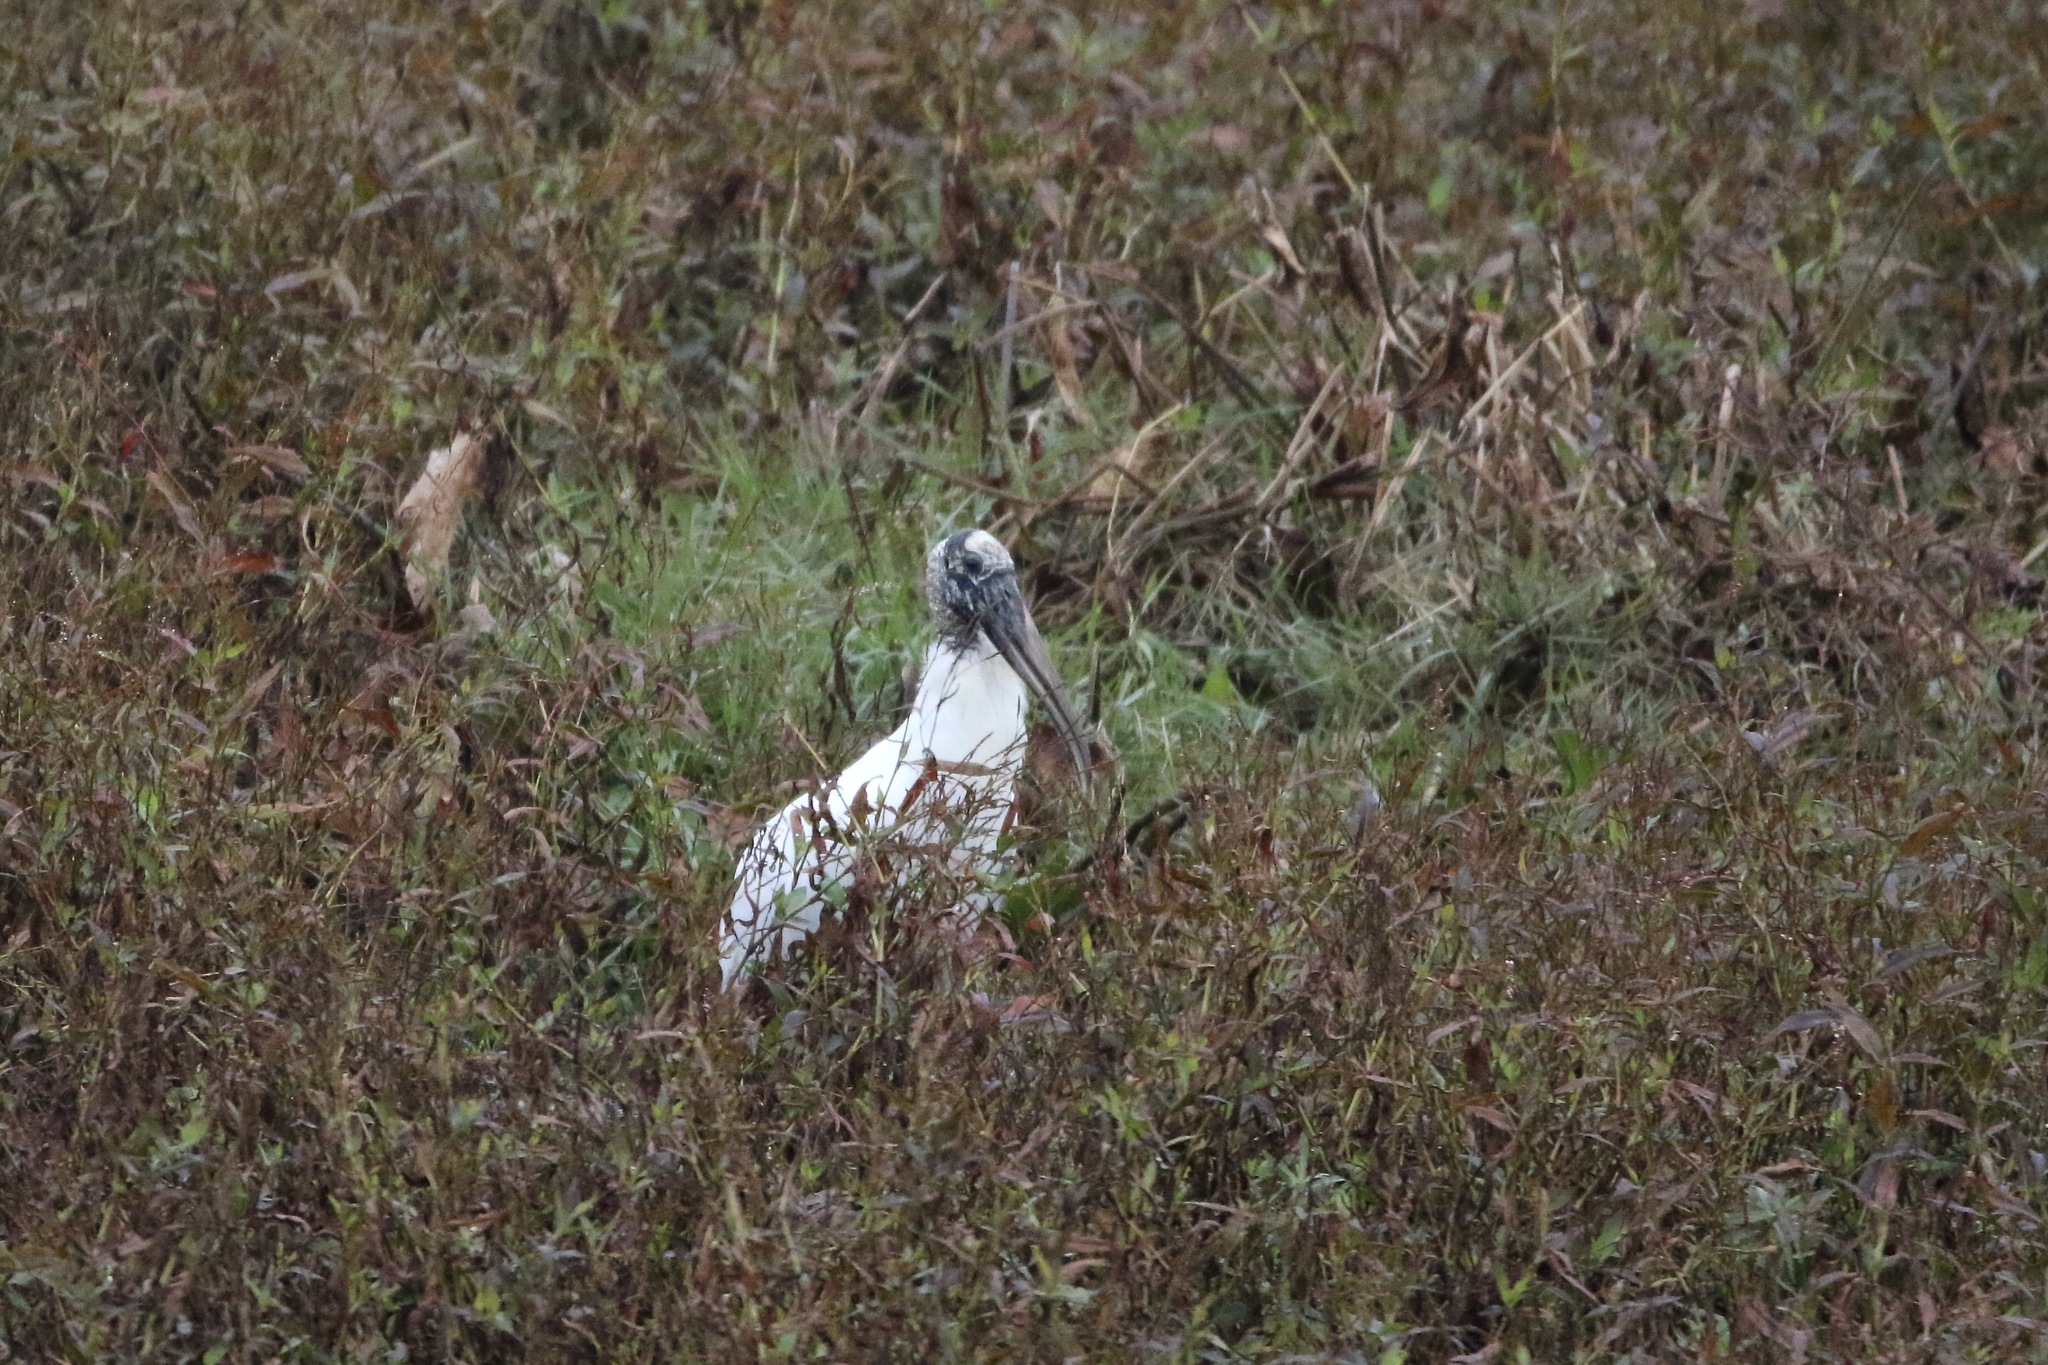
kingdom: Animalia
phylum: Chordata
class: Aves
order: Ciconiiformes
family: Ciconiidae
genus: Mycteria
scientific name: Mycteria americana
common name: Wood stork
